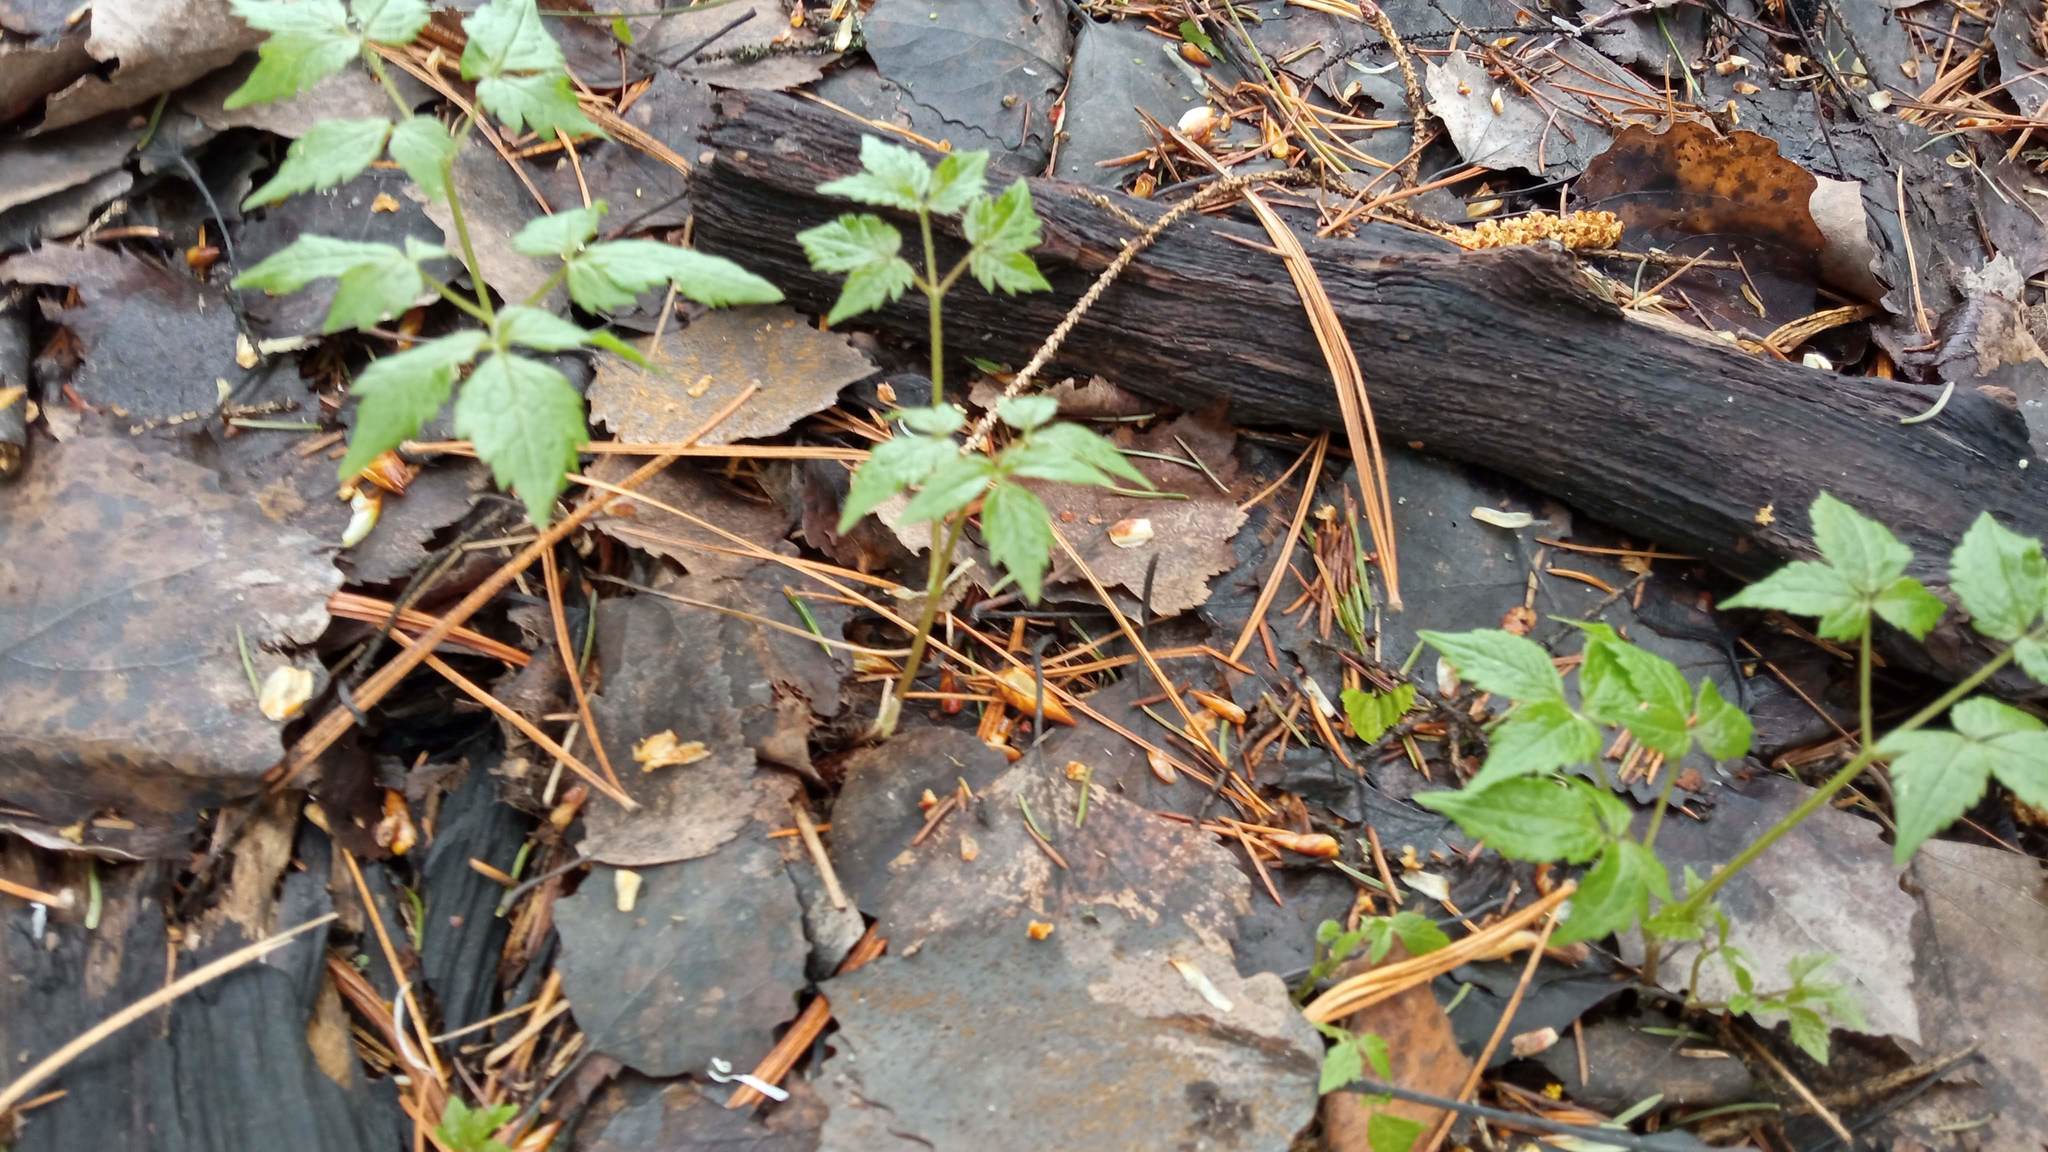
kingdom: Plantae
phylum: Tracheophyta
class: Magnoliopsida
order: Ranunculales
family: Ranunculaceae
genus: Actaea
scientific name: Actaea erythrocarpa
